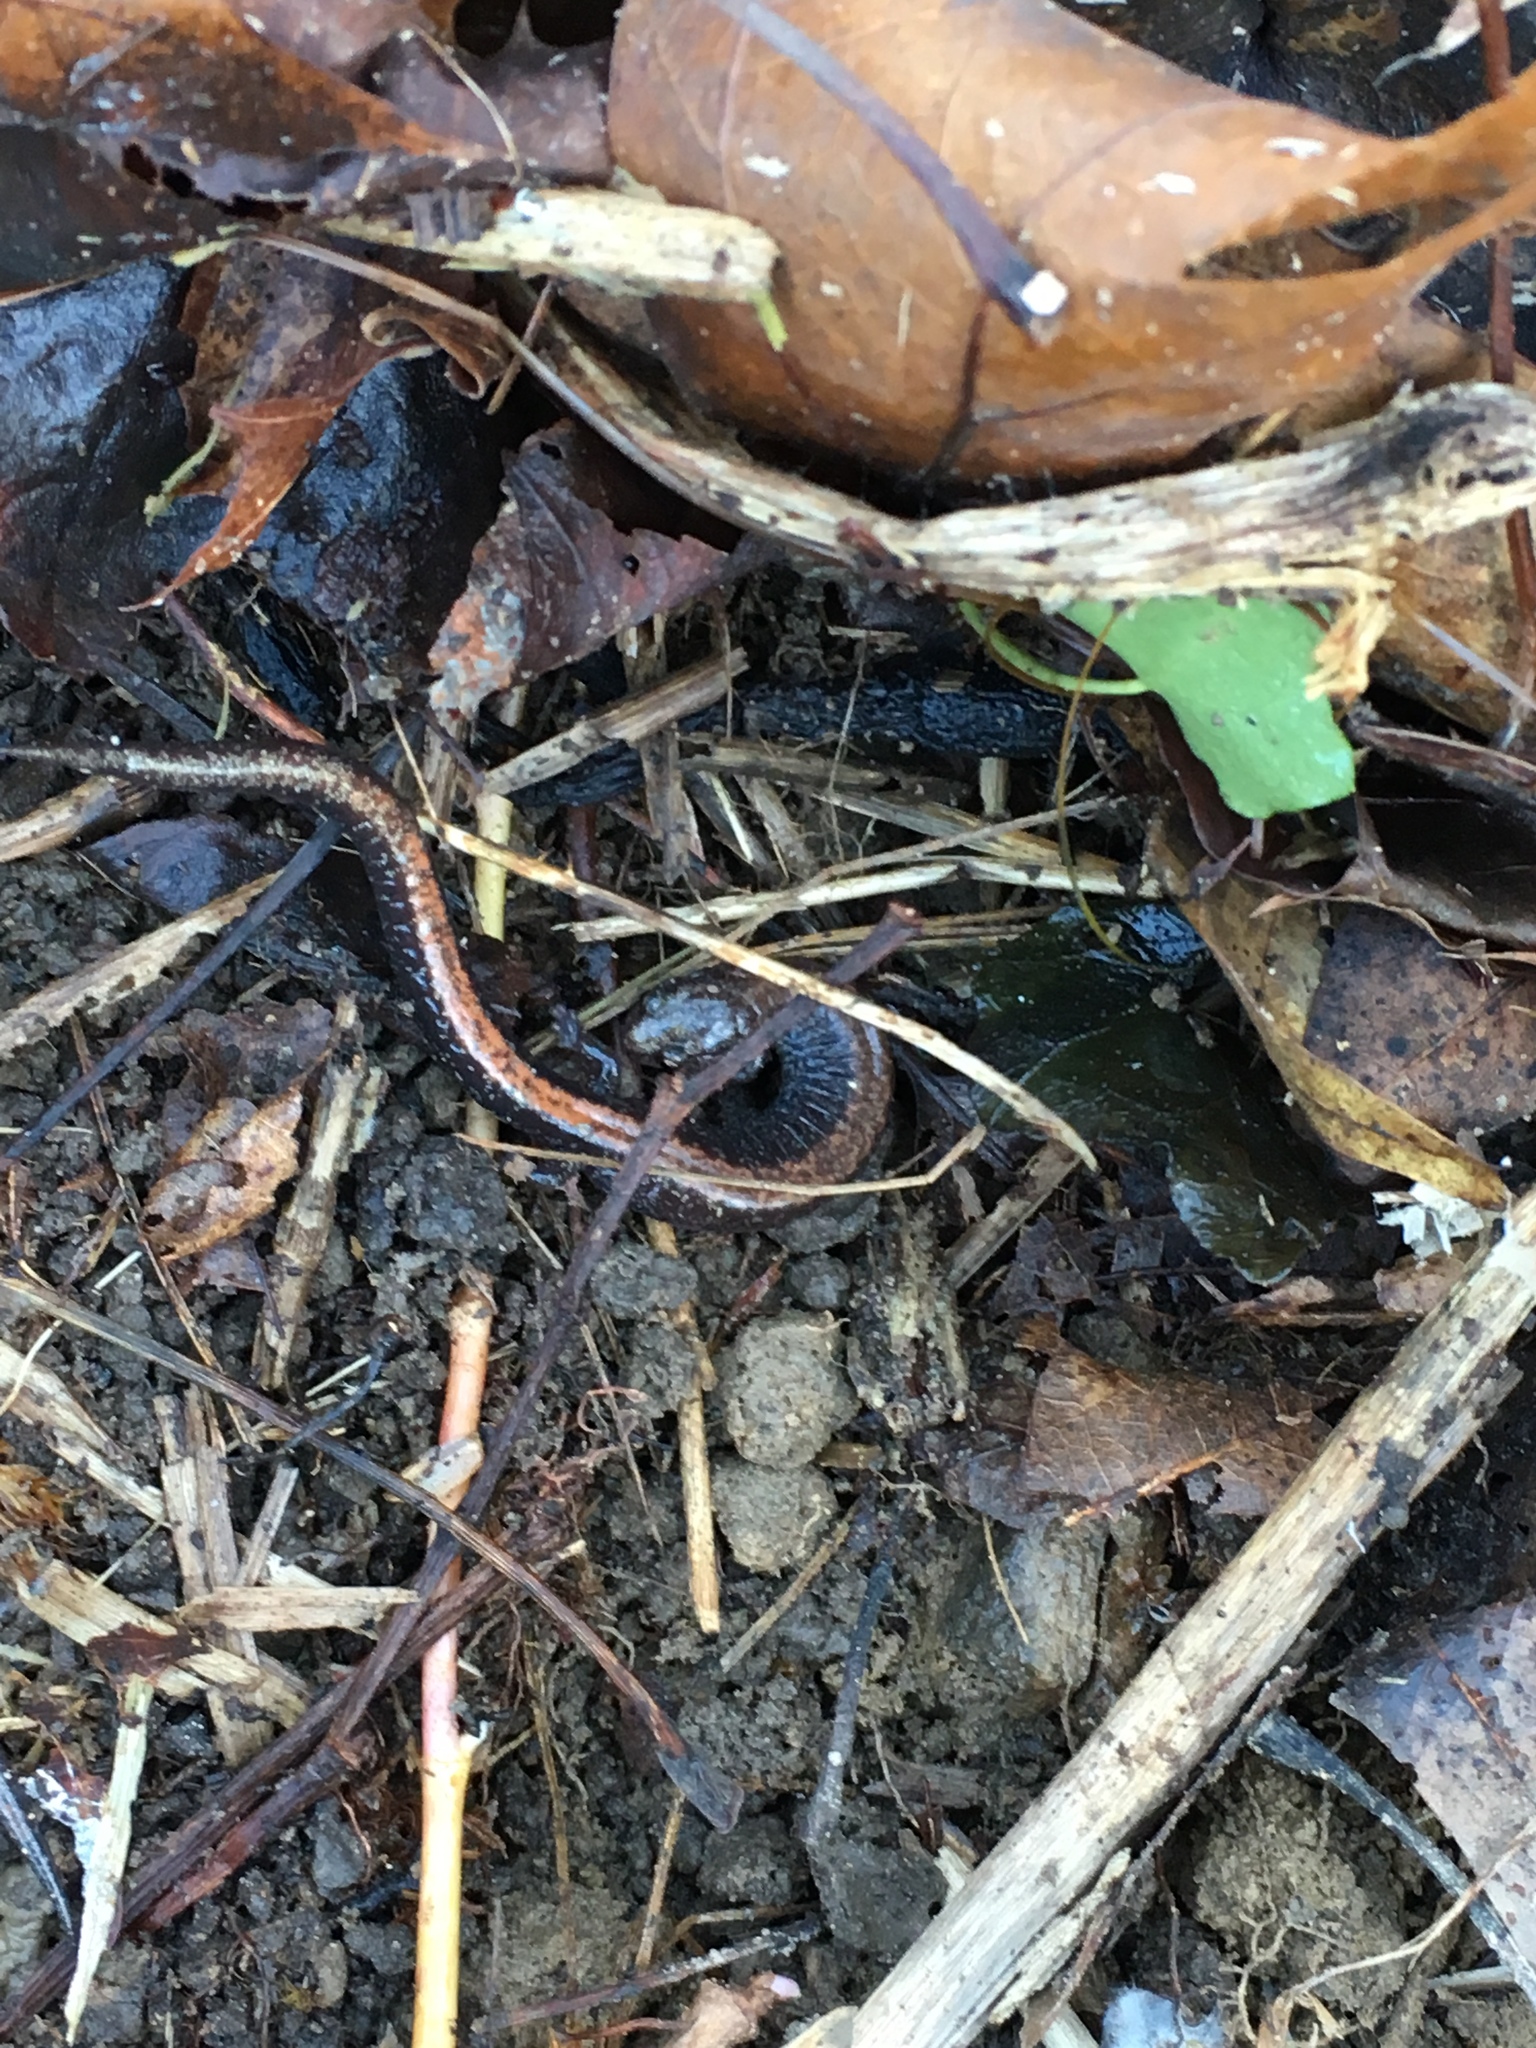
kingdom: Animalia
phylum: Chordata
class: Amphibia
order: Caudata
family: Plethodontidae
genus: Plethodon
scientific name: Plethodon cinereus
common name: Redback salamander
